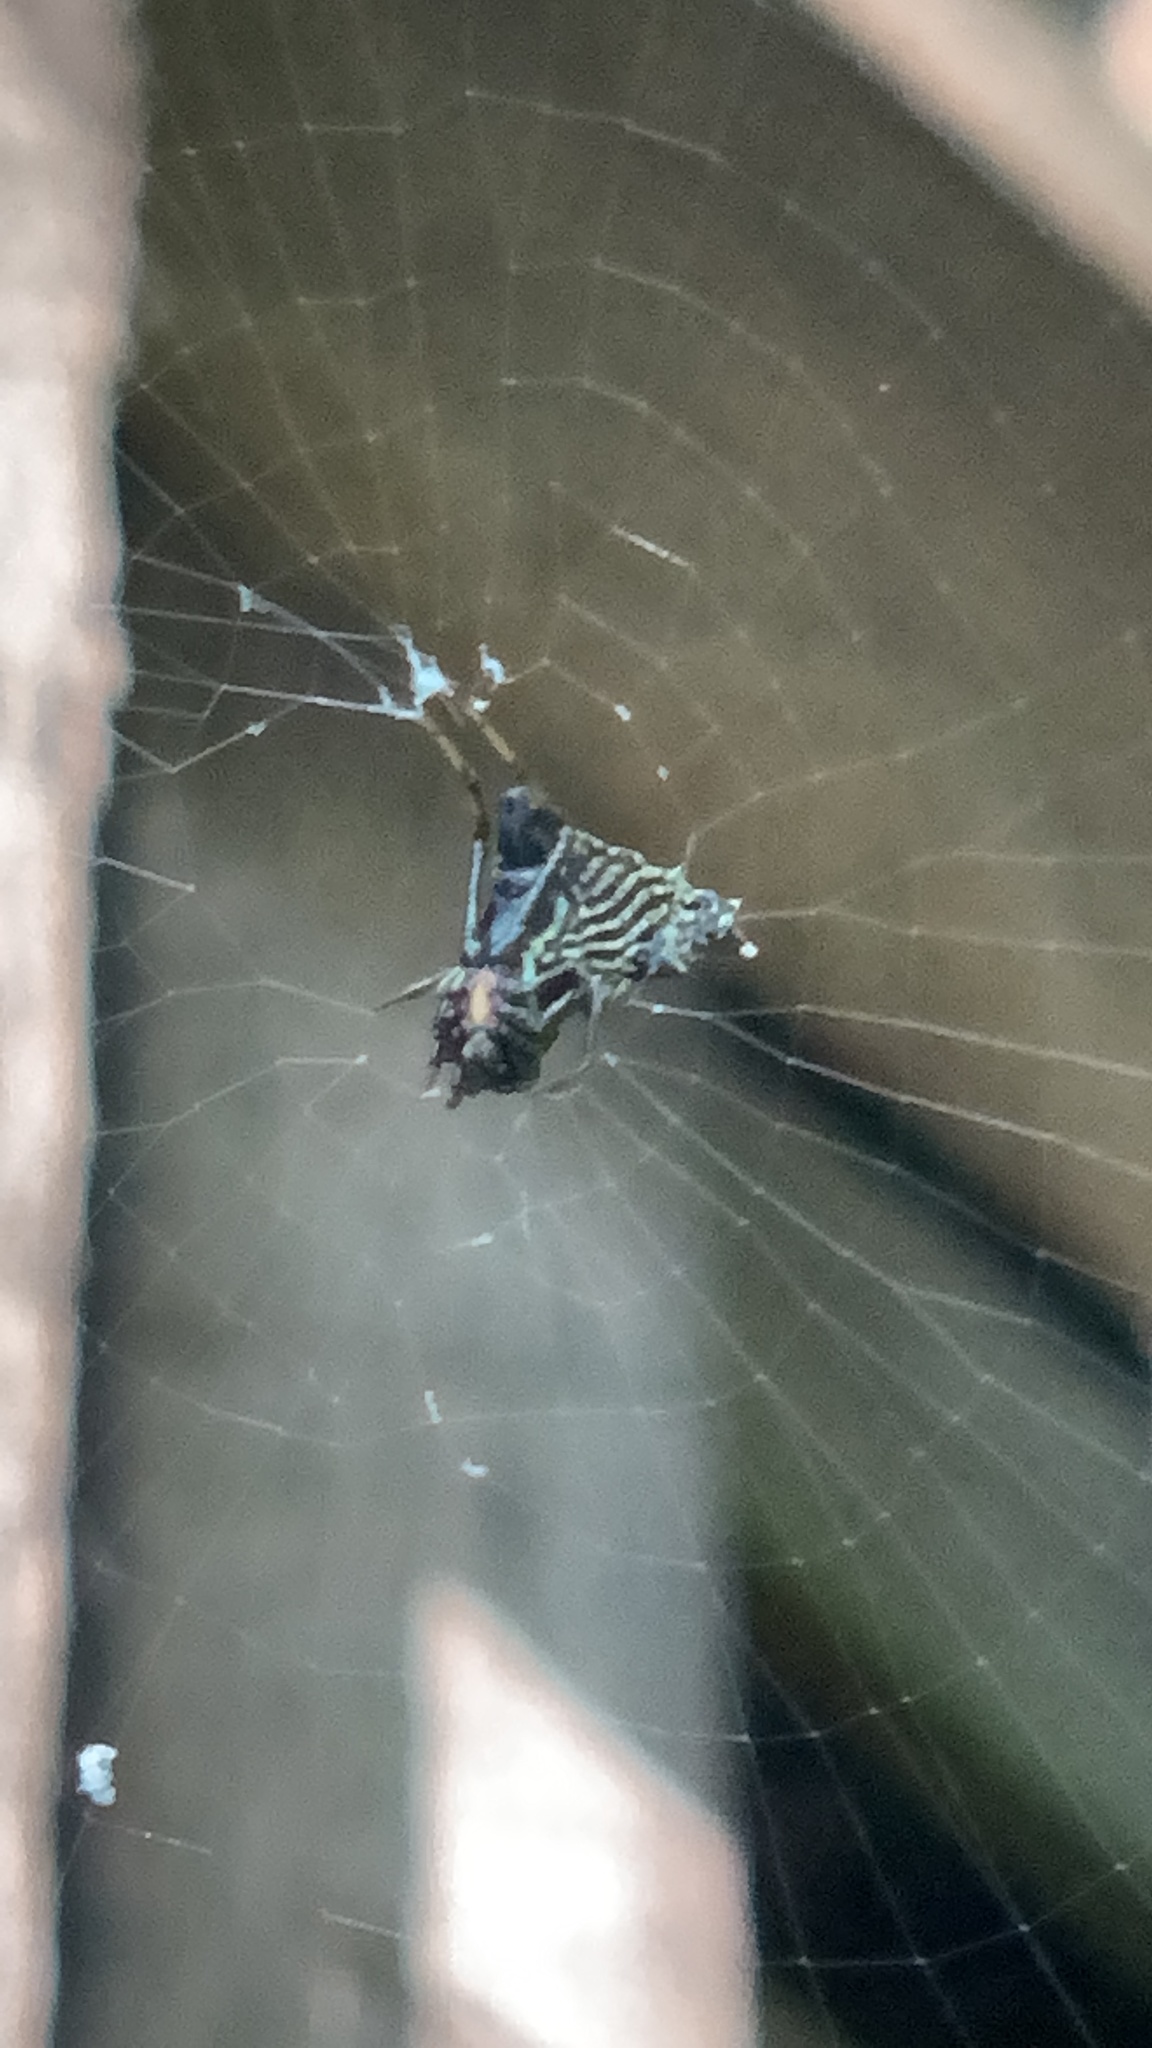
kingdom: Animalia
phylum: Arthropoda
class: Arachnida
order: Araneae
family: Araneidae
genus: Micrathena
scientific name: Micrathena gracilis
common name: Orb weavers
